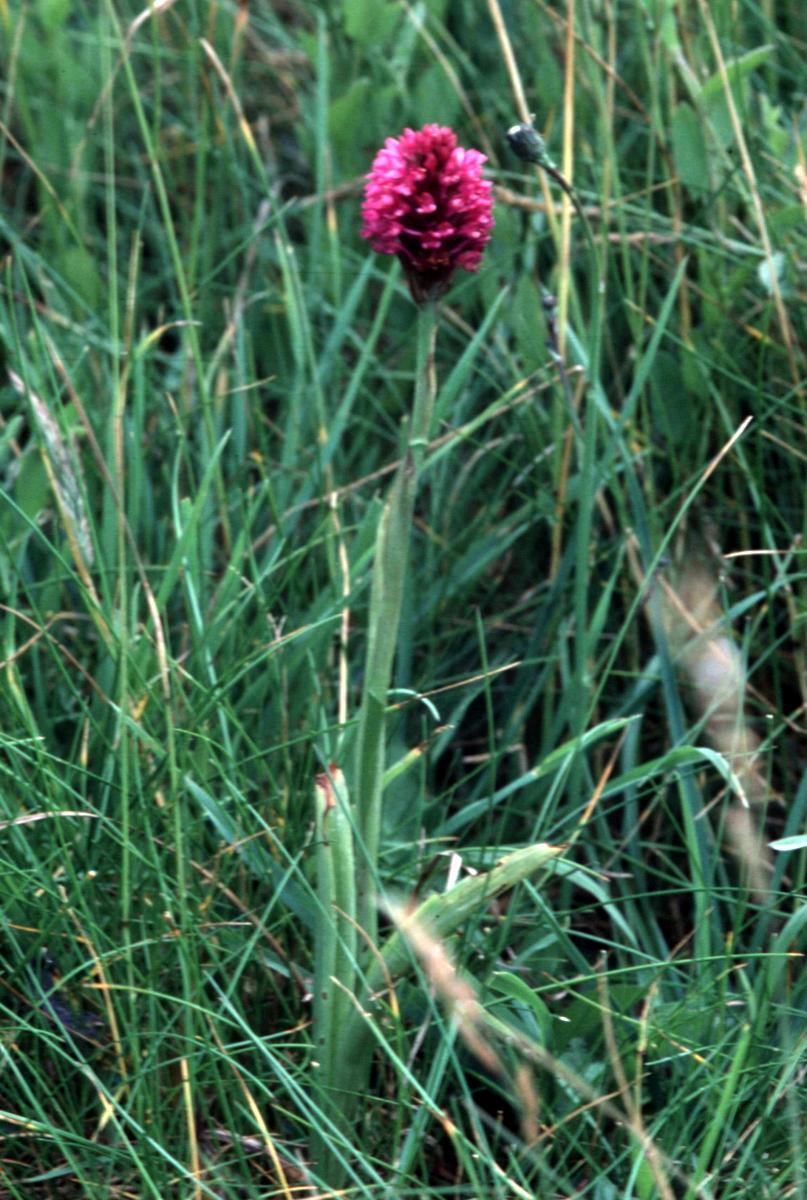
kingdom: Plantae
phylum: Tracheophyta
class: Liliopsida
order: Asparagales
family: Orchidaceae
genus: Anacamptis
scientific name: Anacamptis pyramidalis
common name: Pyramidal orchid
